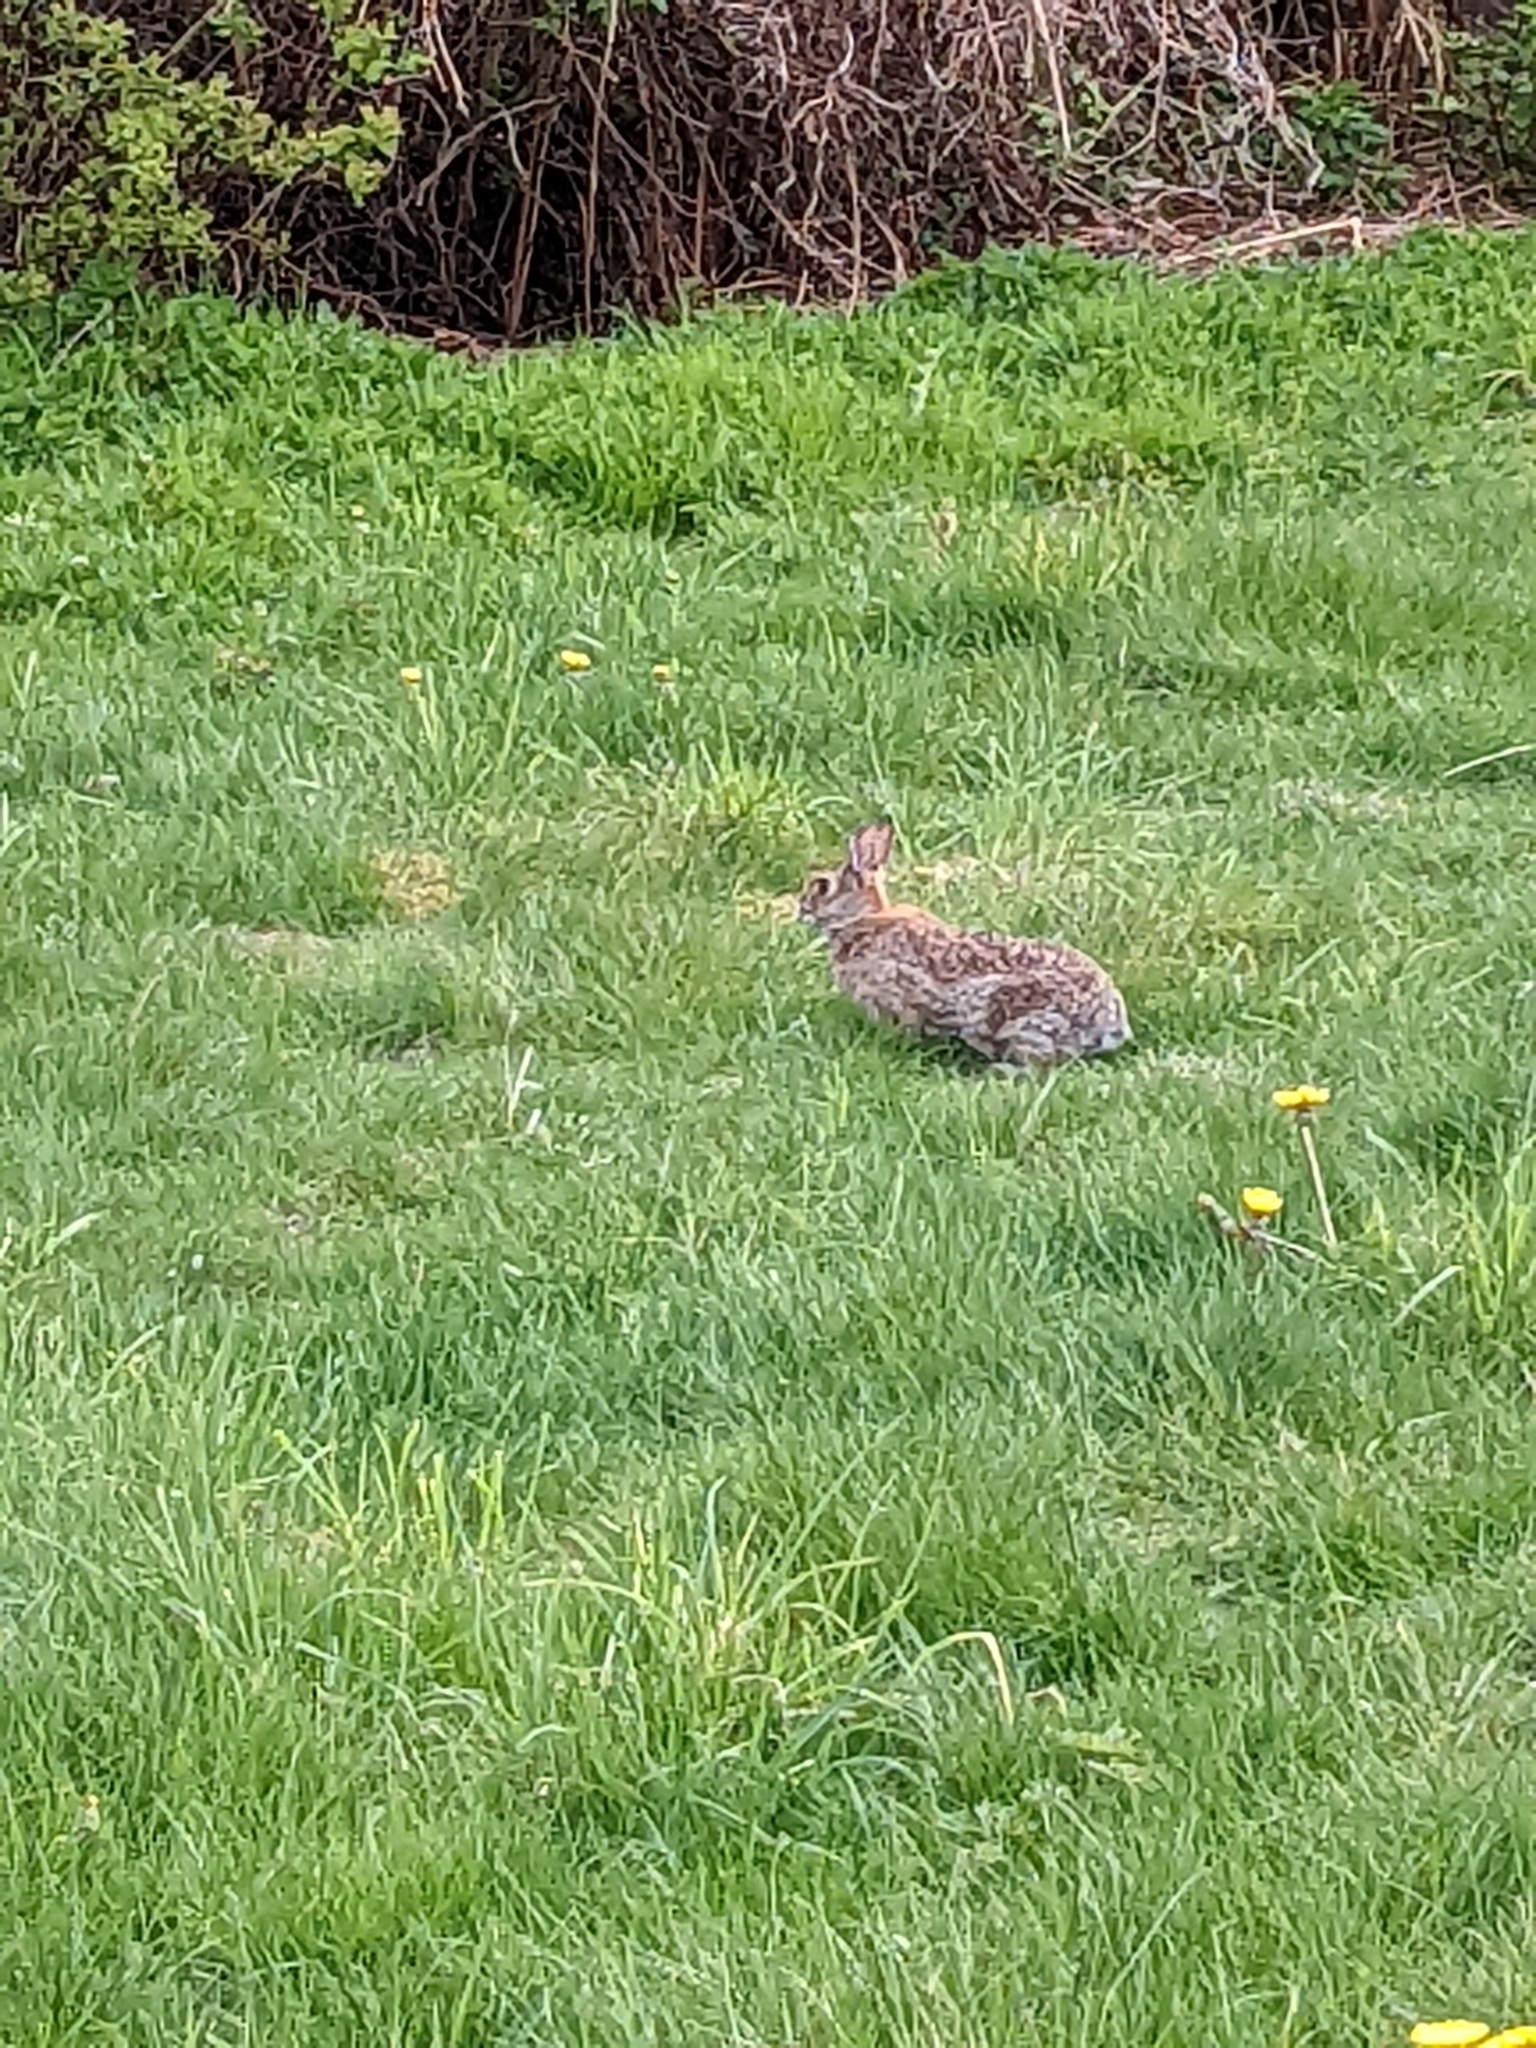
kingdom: Animalia
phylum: Chordata
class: Mammalia
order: Lagomorpha
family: Leporidae
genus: Sylvilagus
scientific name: Sylvilagus floridanus
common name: Eastern cottontail
